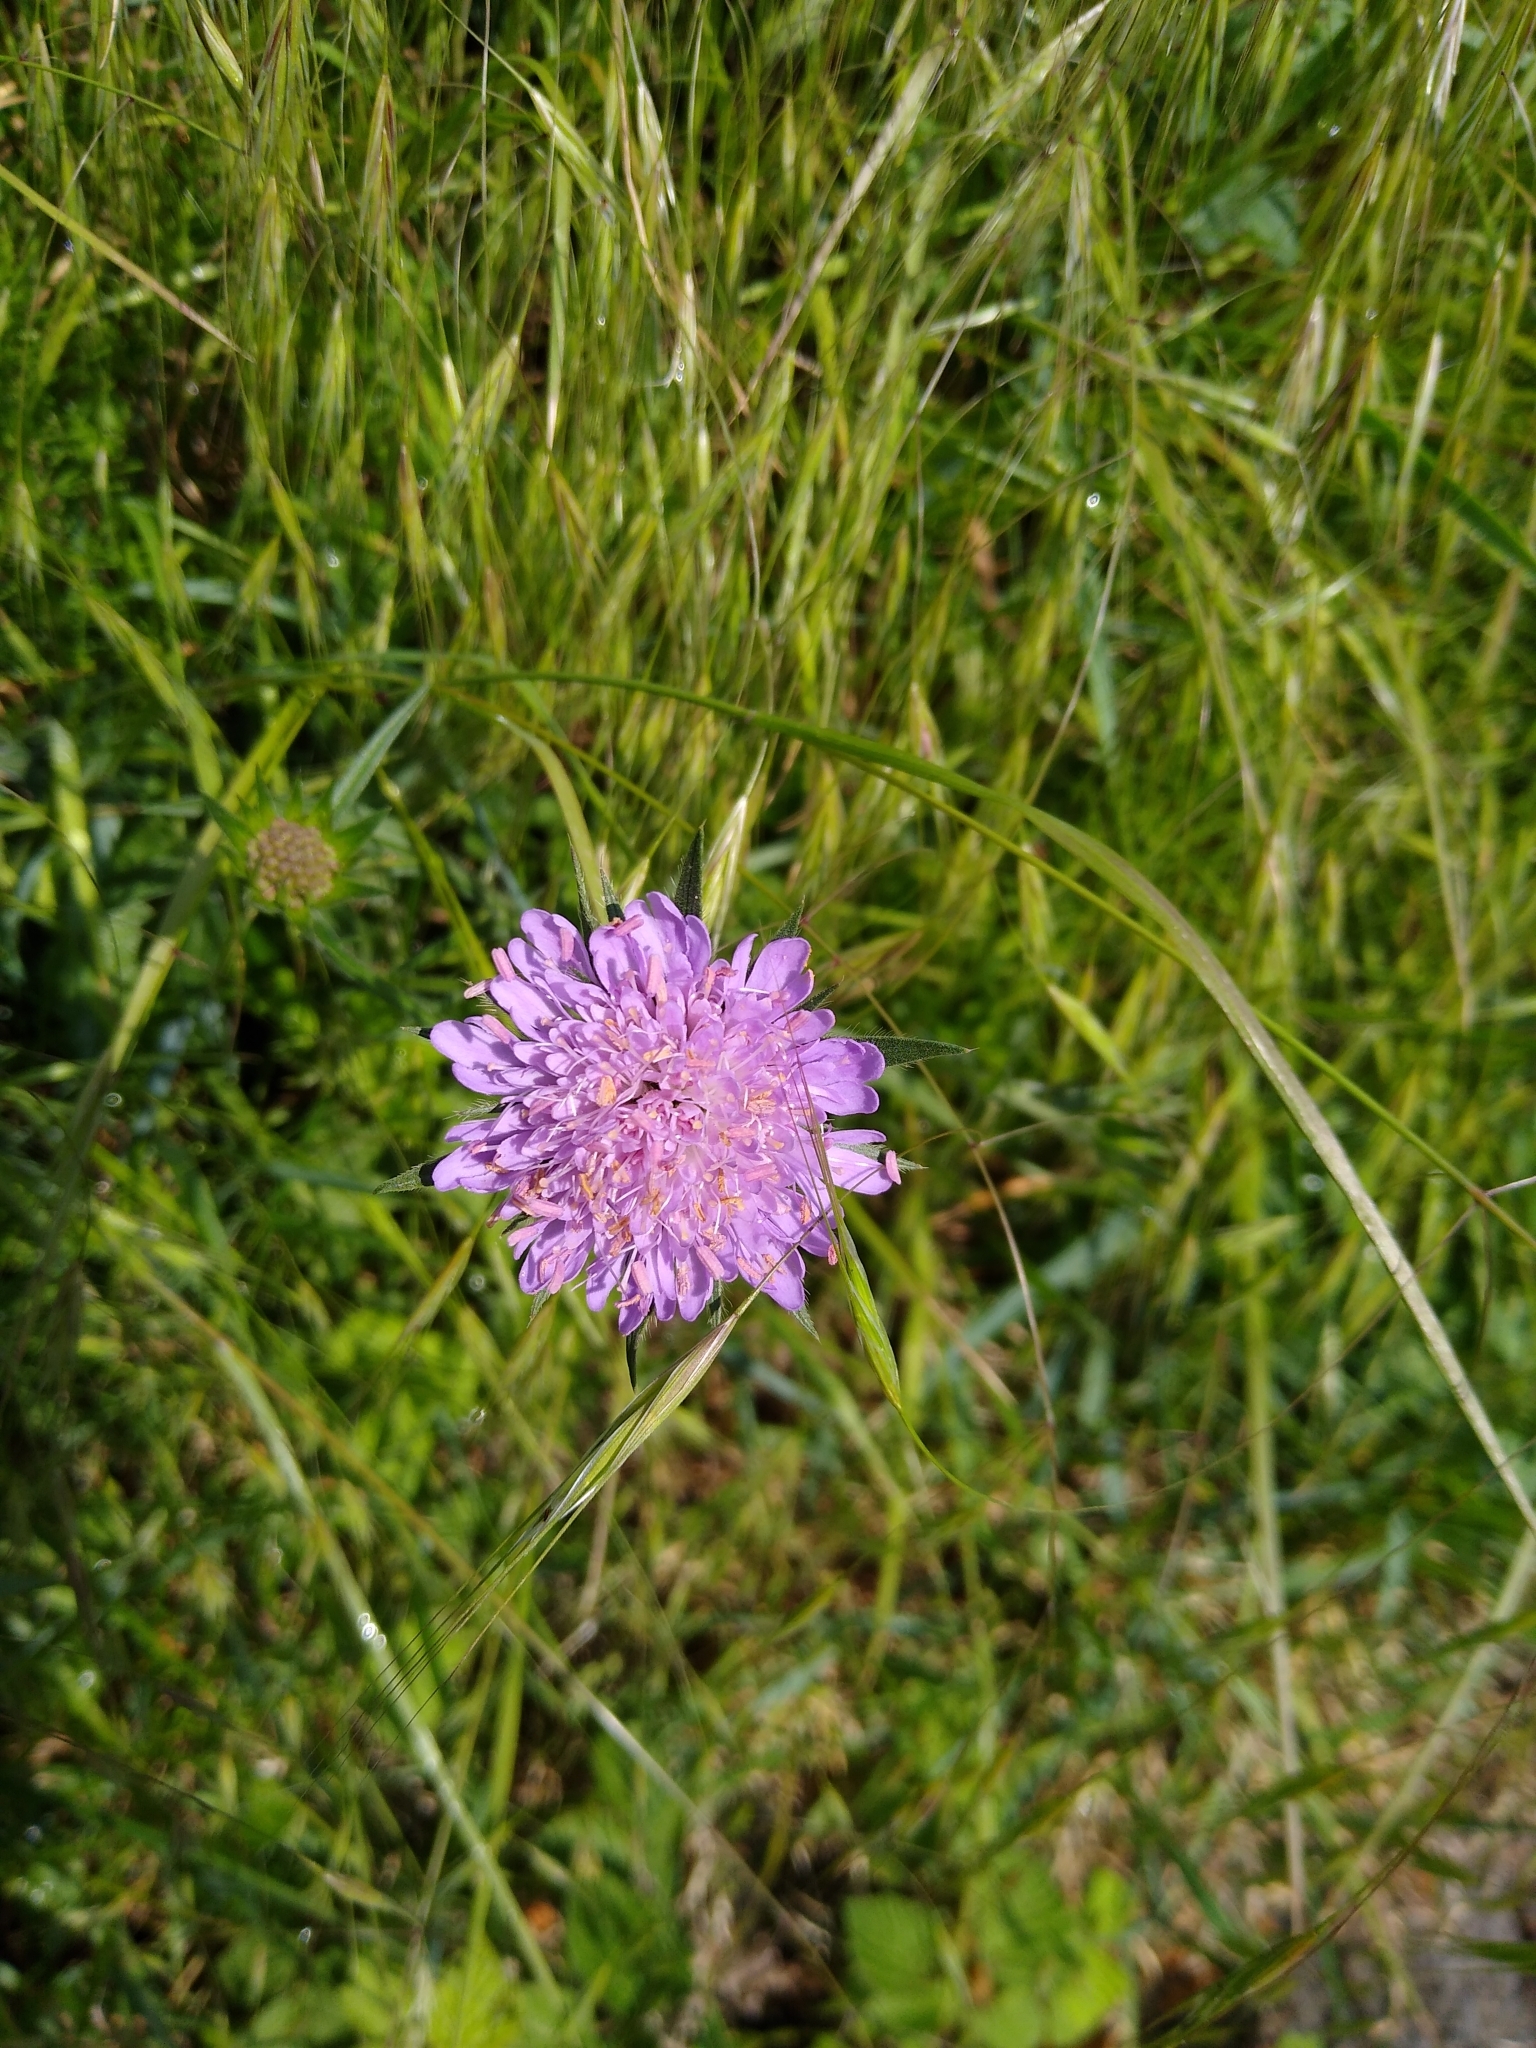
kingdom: Plantae
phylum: Tracheophyta
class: Magnoliopsida
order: Dipsacales
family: Caprifoliaceae
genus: Knautia
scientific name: Knautia arvensis
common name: Field scabiosa
